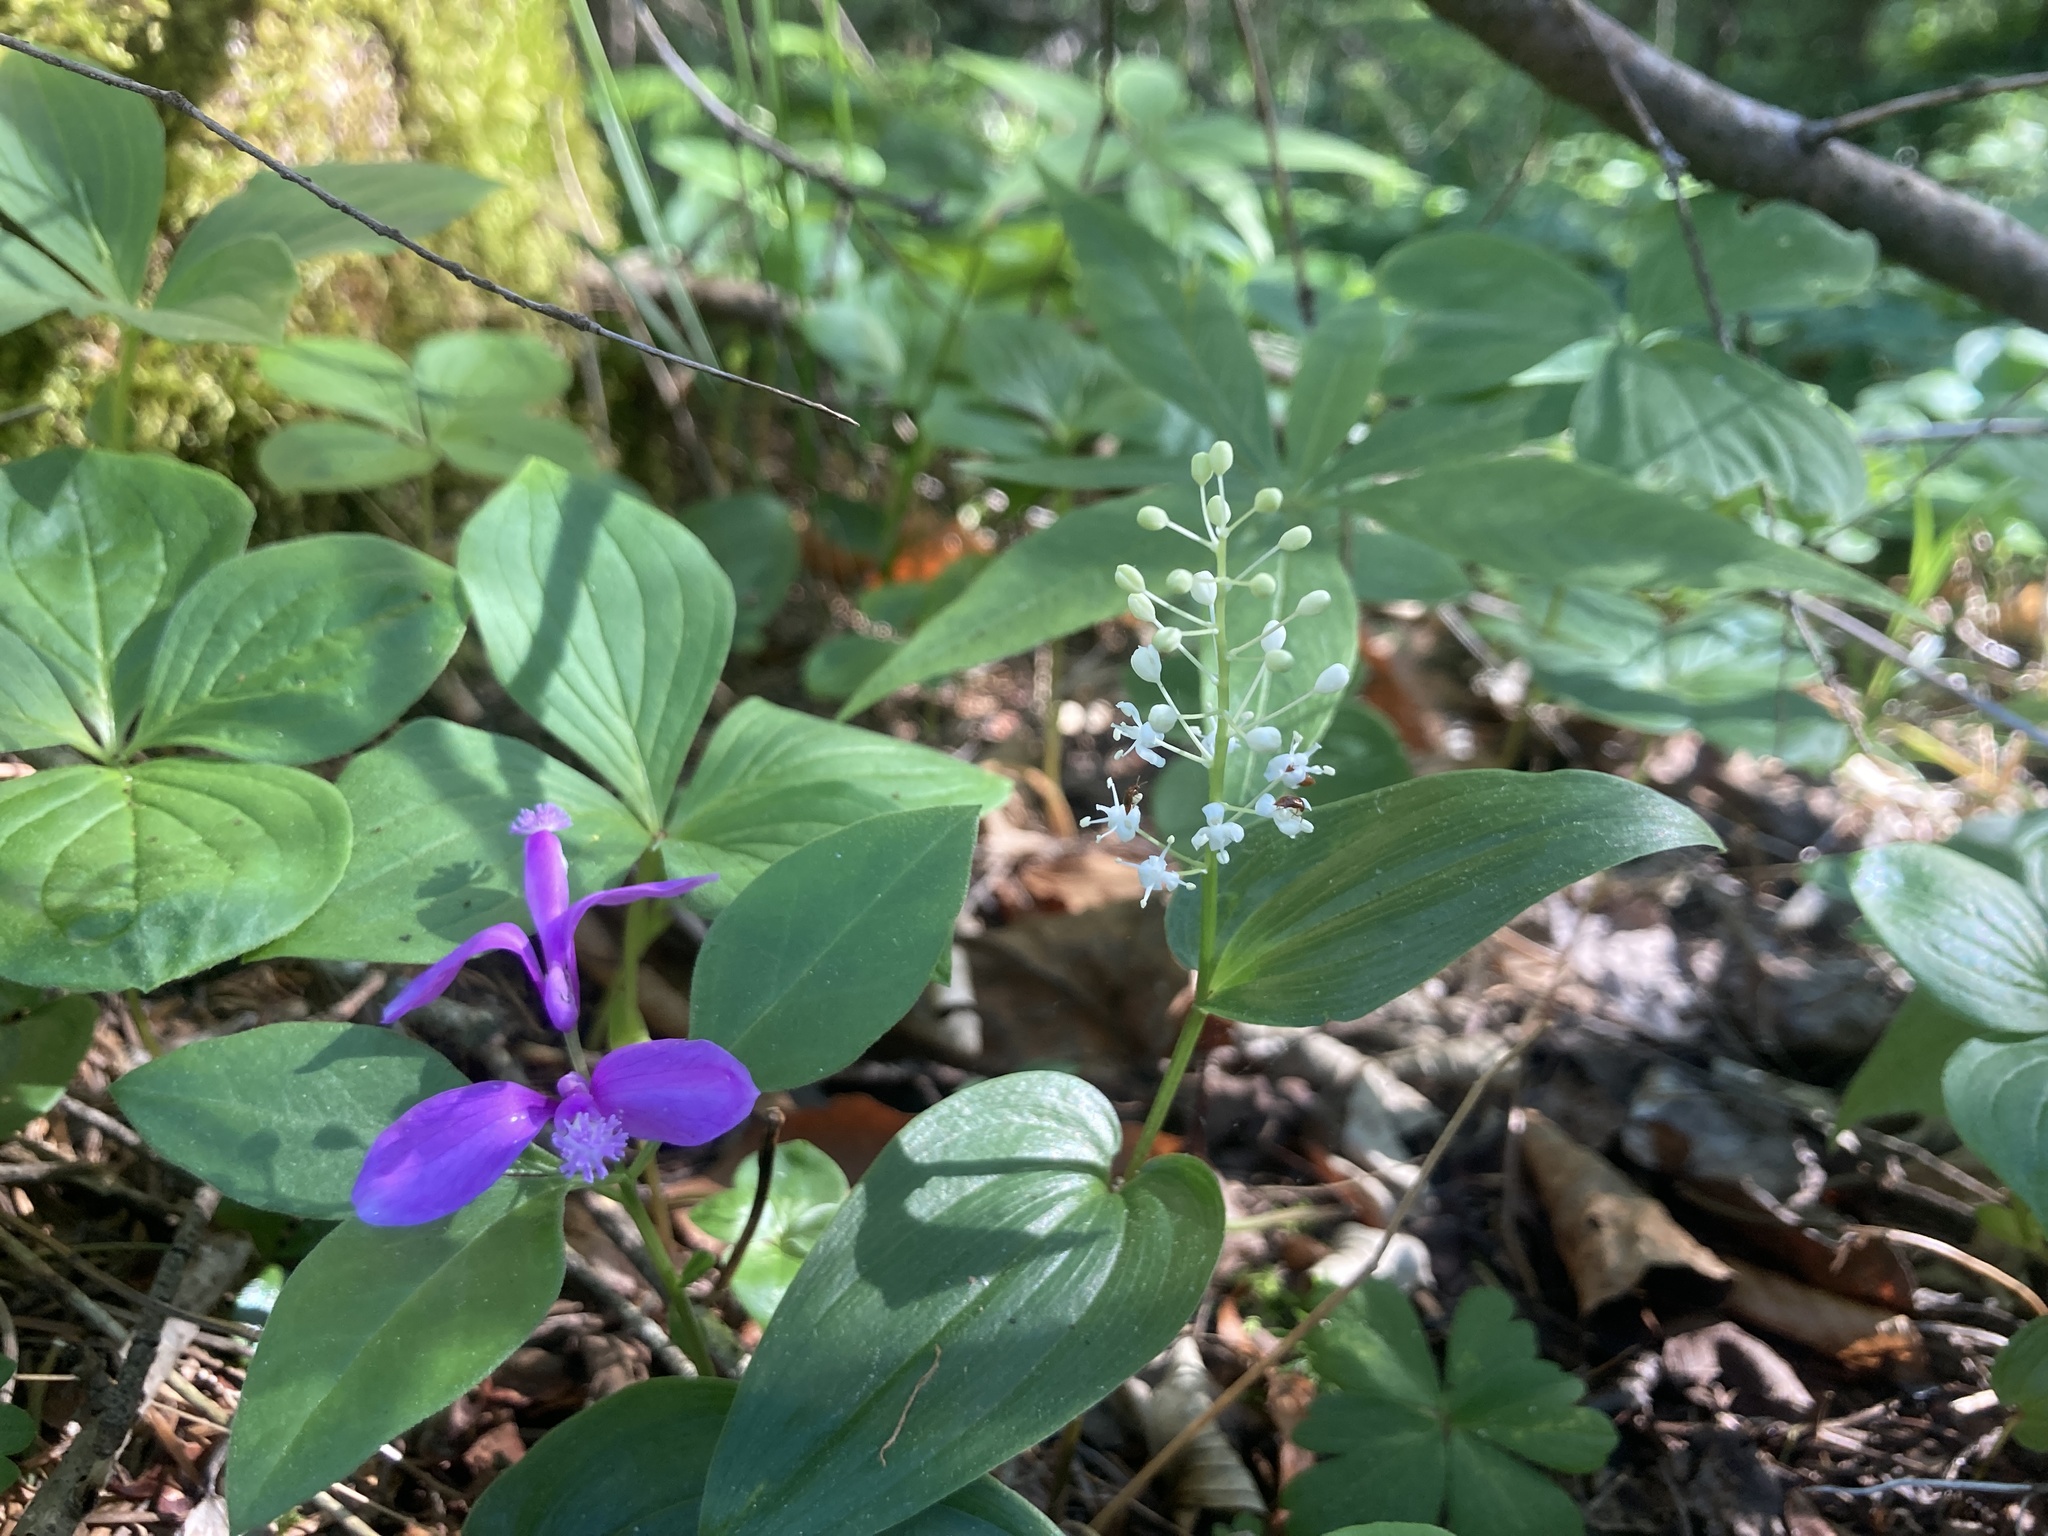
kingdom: Plantae
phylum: Tracheophyta
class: Liliopsida
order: Asparagales
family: Asparagaceae
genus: Maianthemum
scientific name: Maianthemum canadense
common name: False lily-of-the-valley
